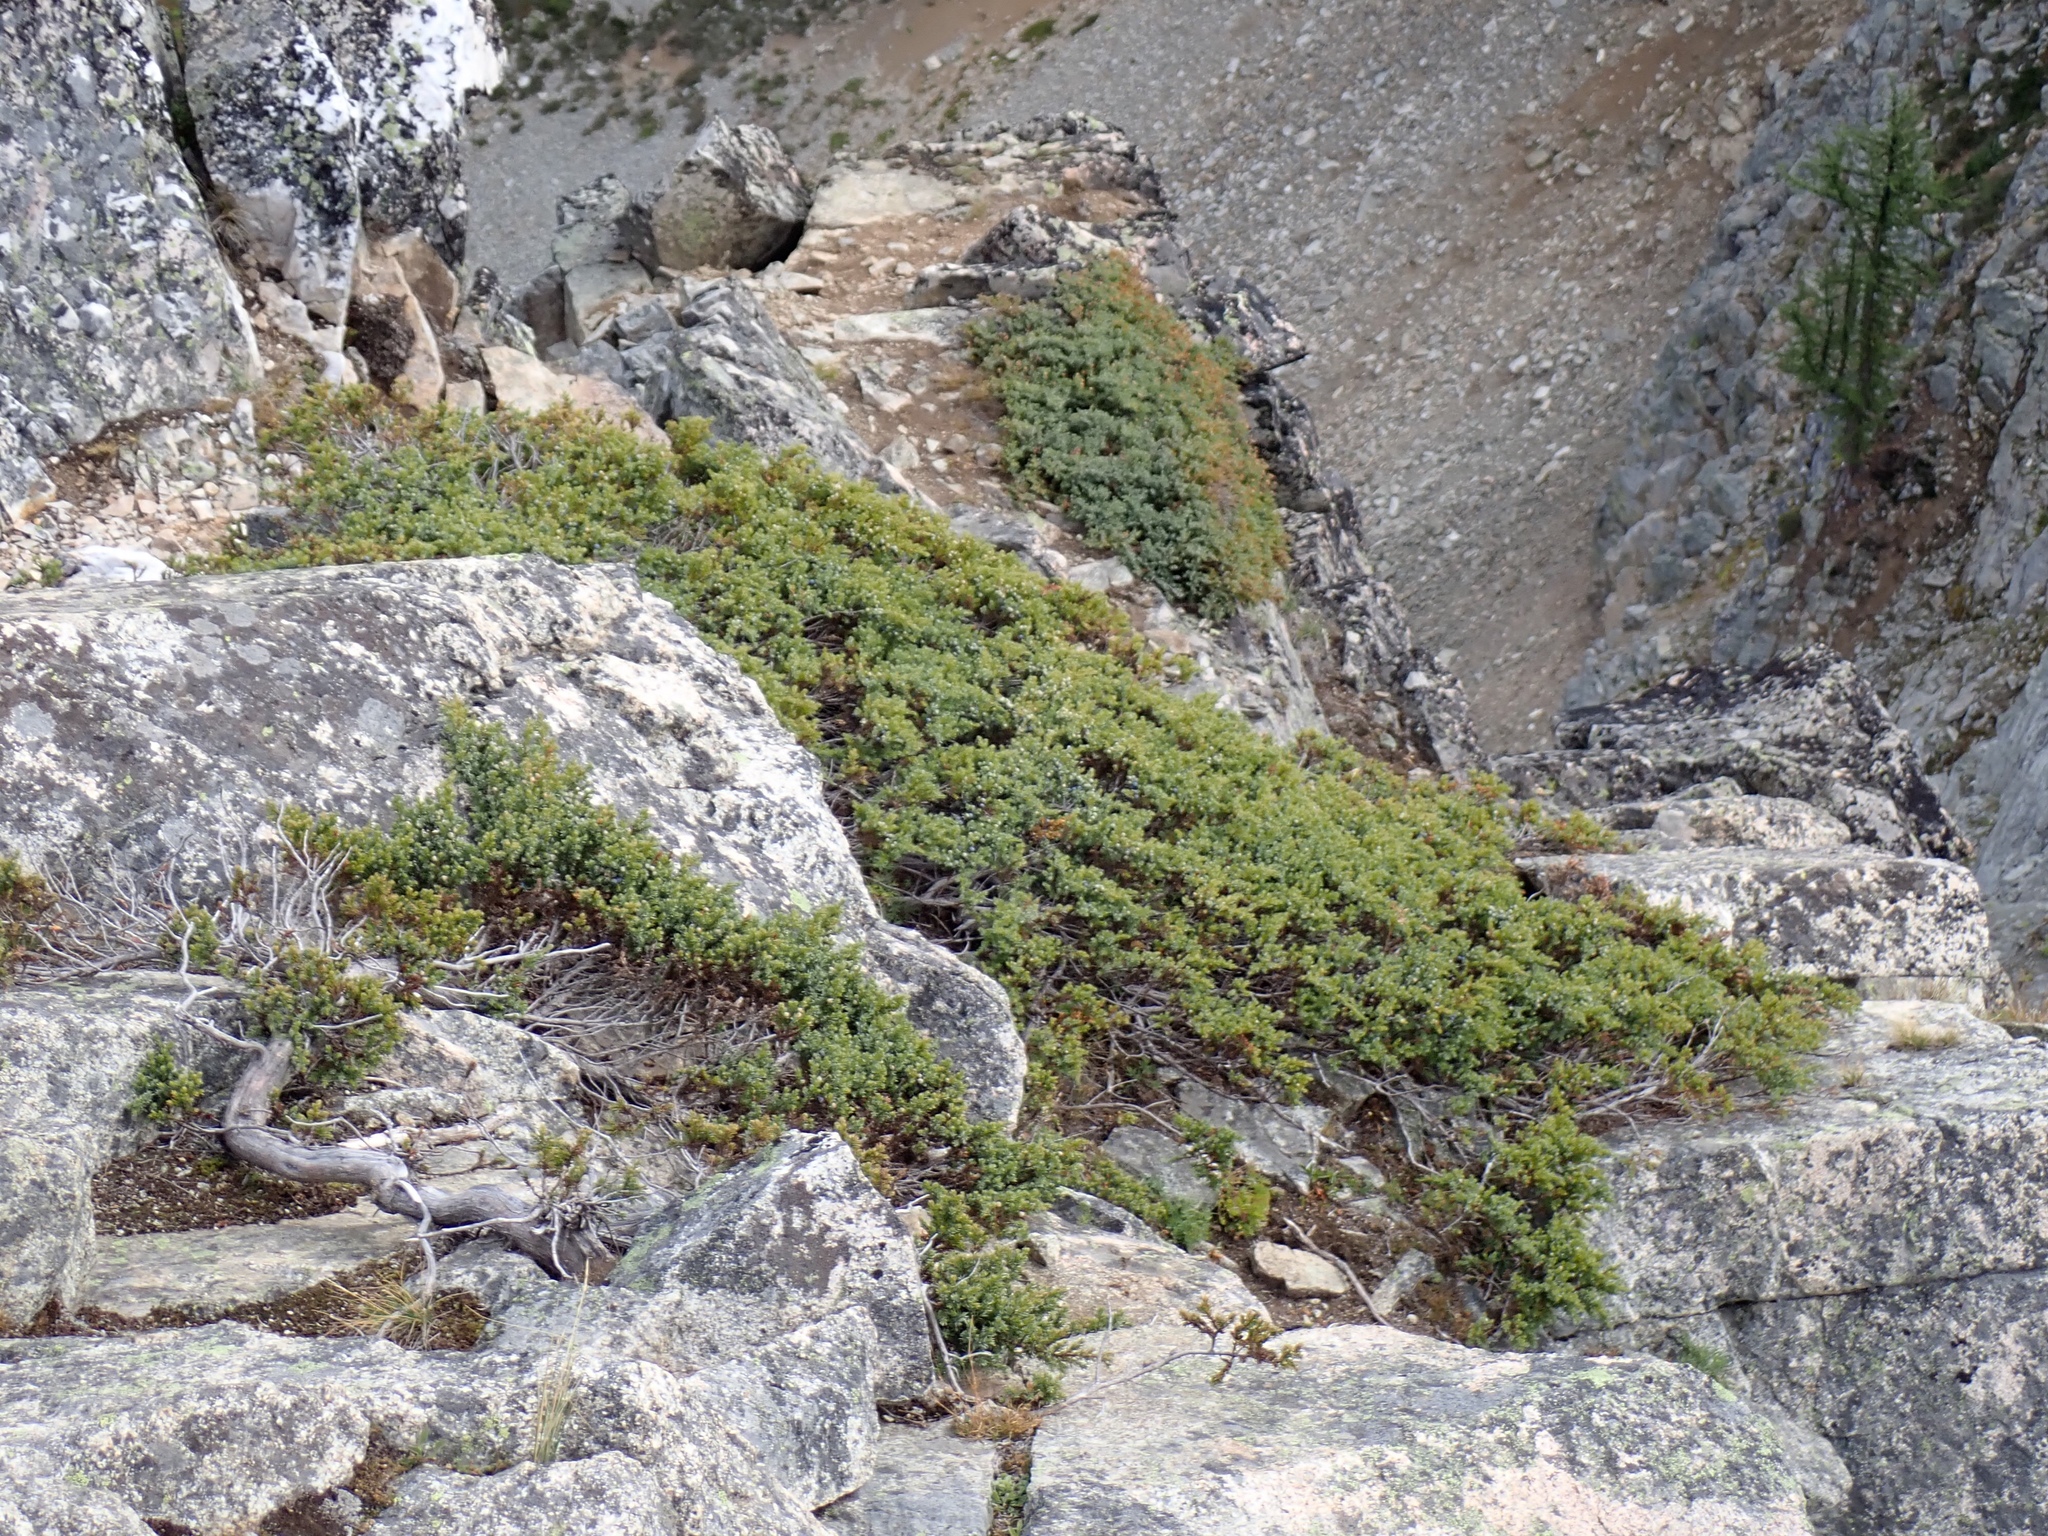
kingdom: Plantae
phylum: Tracheophyta
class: Pinopsida
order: Pinales
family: Cupressaceae
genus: Juniperus
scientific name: Juniperus communis
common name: Common juniper
